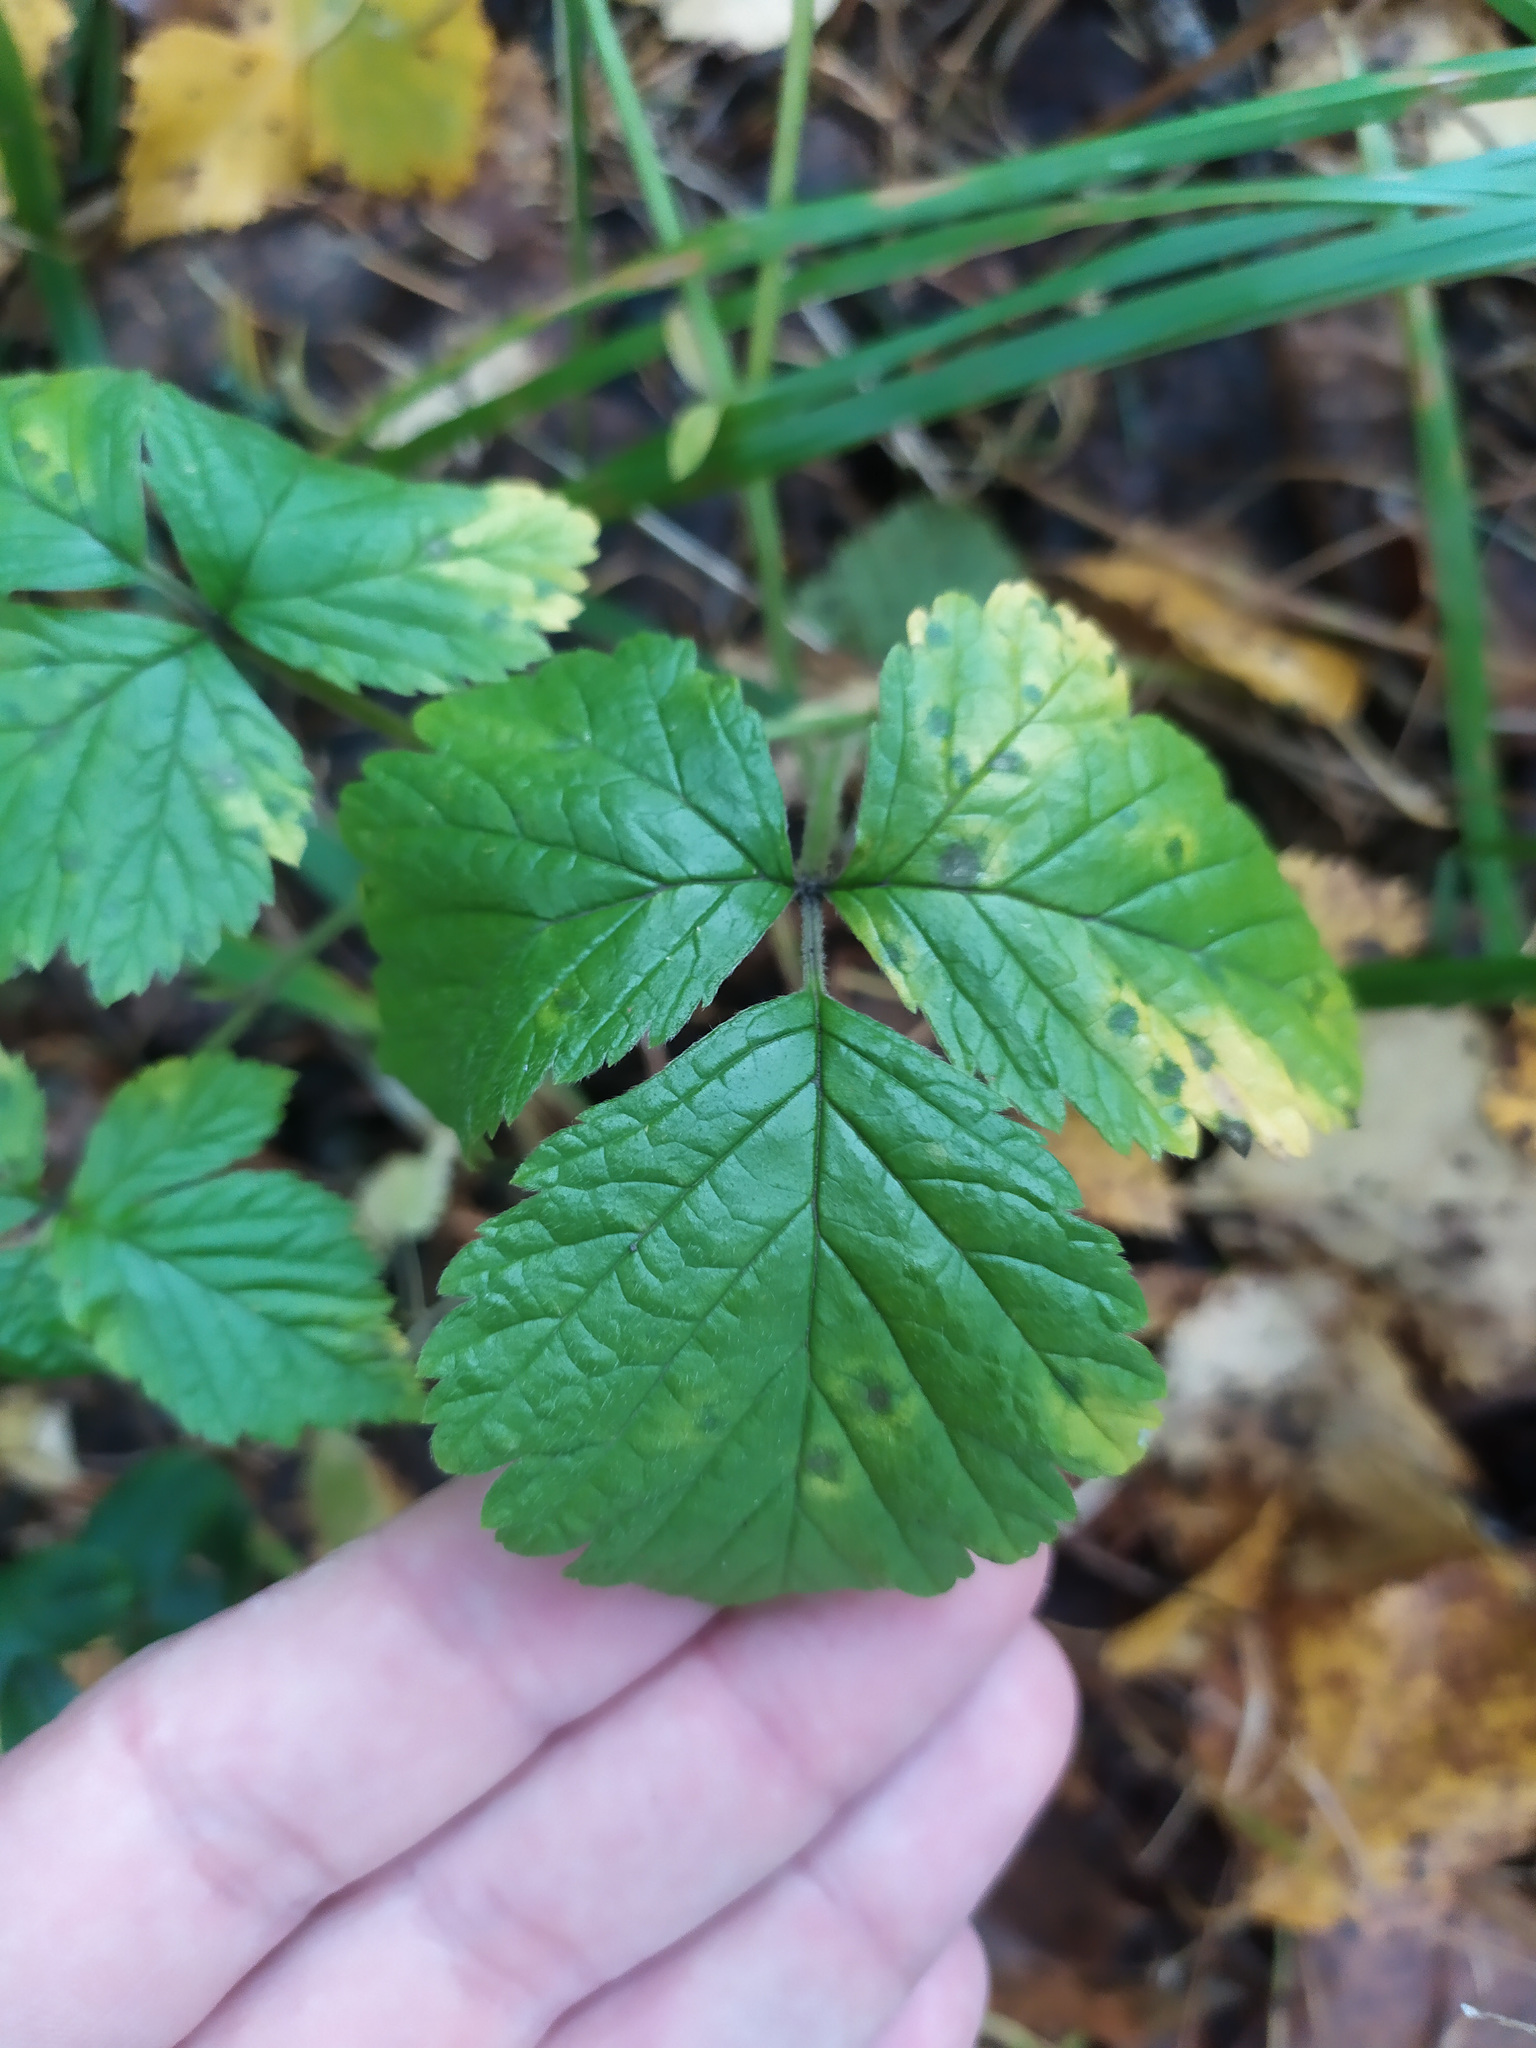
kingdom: Plantae
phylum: Tracheophyta
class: Magnoliopsida
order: Rosales
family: Rosaceae
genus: Rubus
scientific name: Rubus saxatilis
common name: Stone bramble
